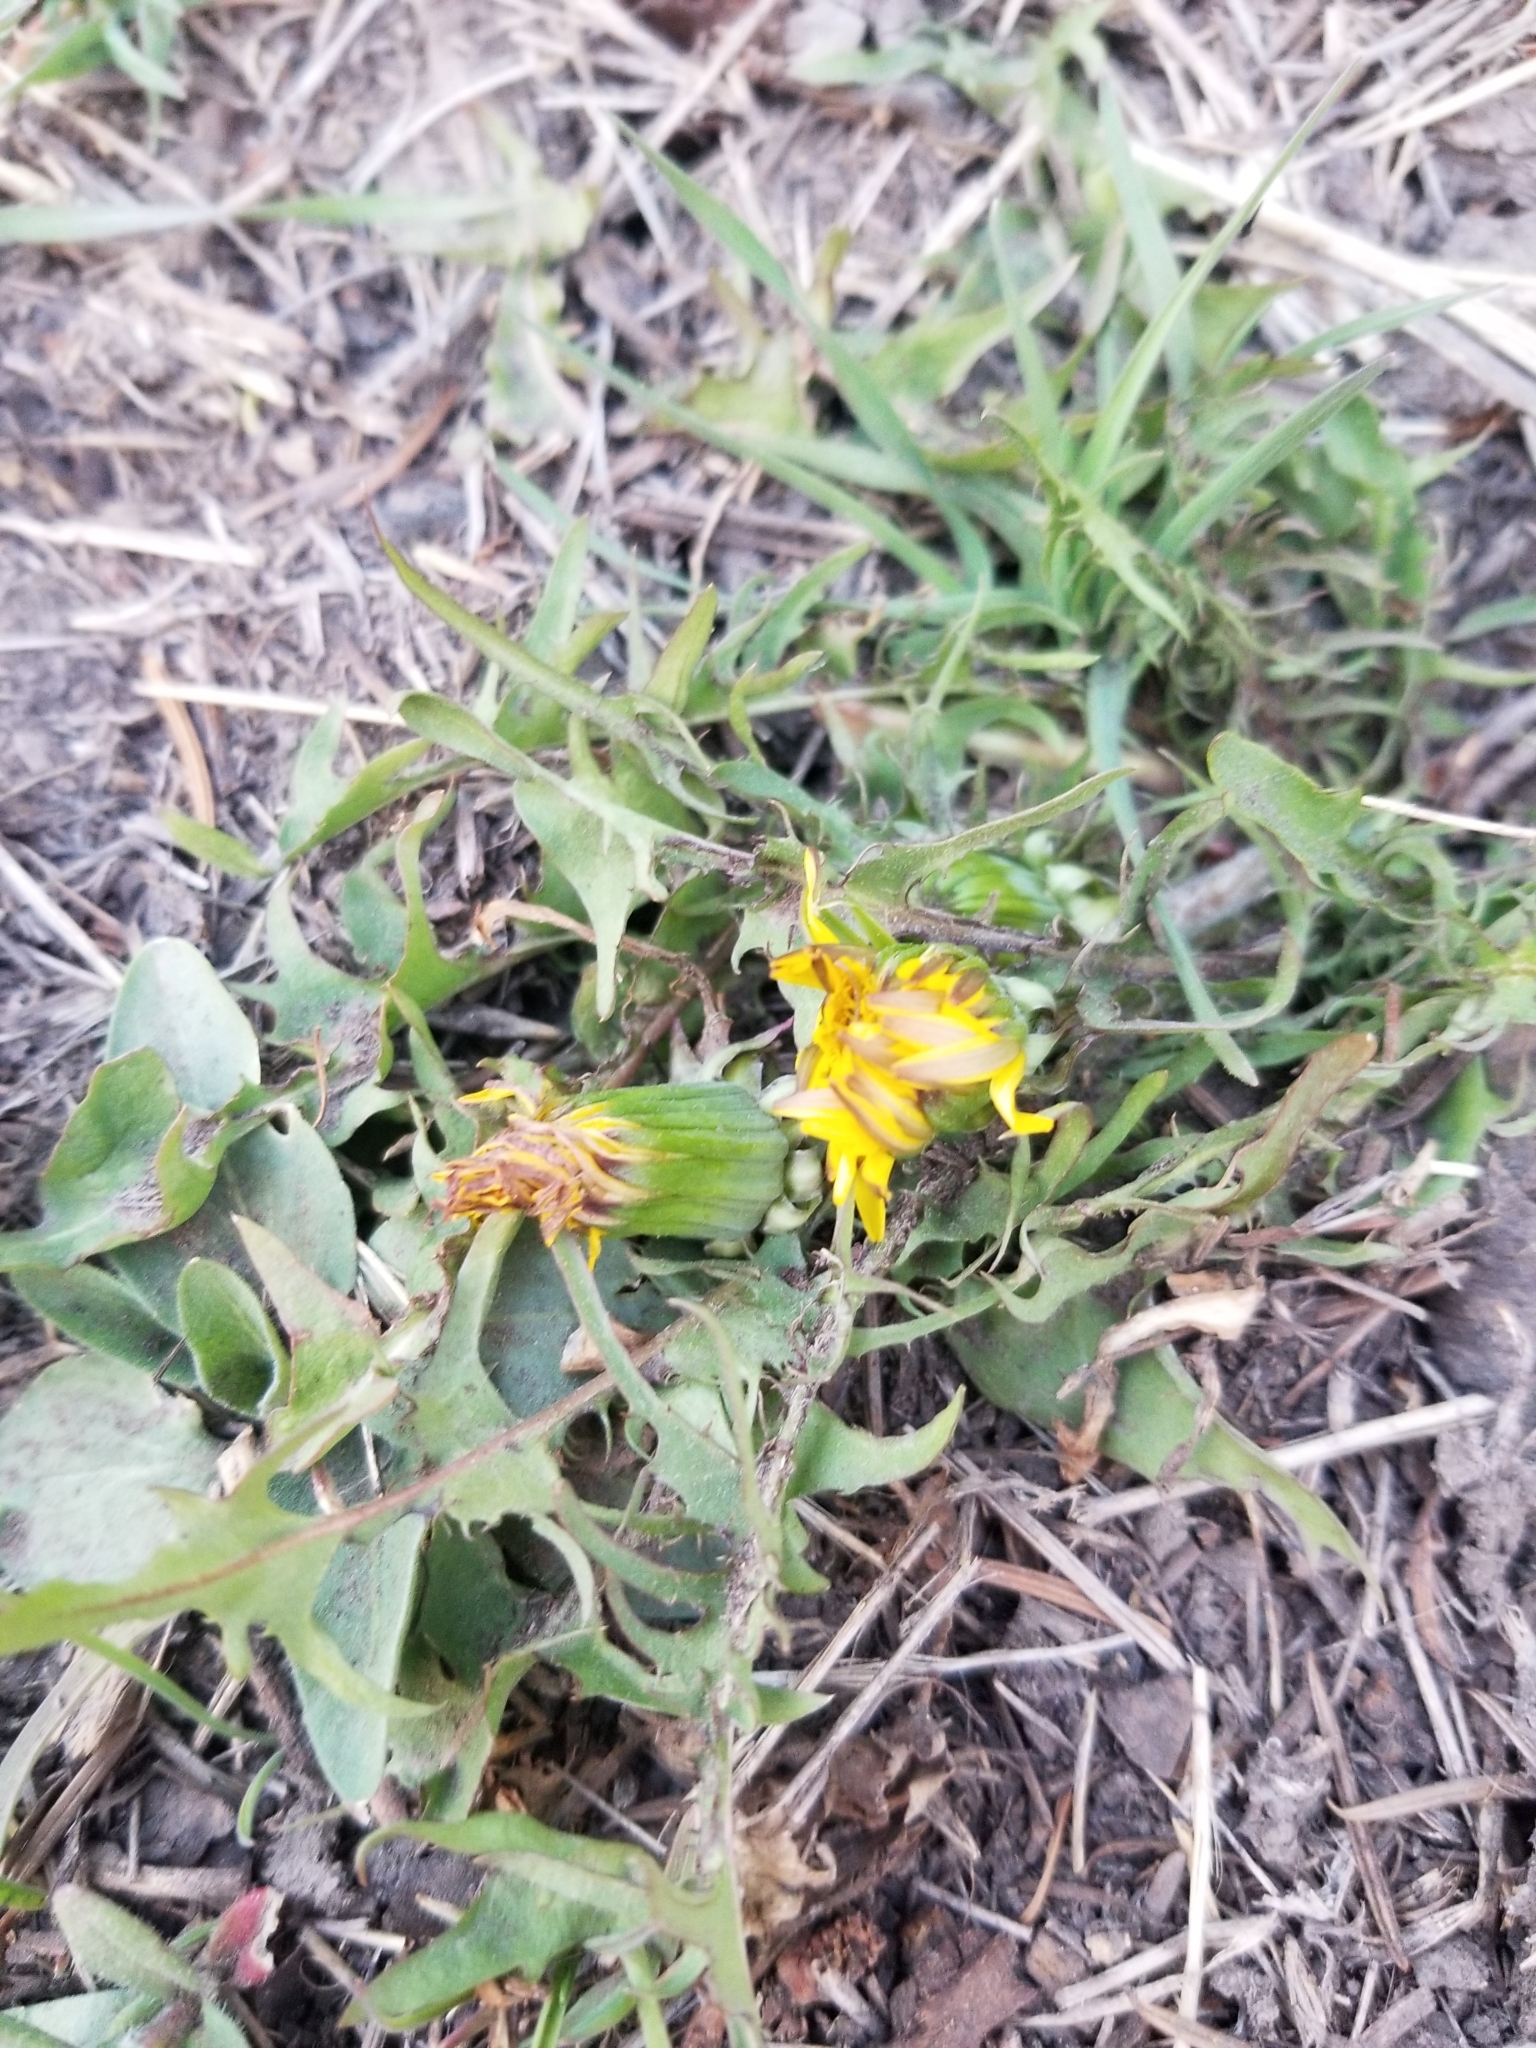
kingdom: Plantae
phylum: Tracheophyta
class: Magnoliopsida
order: Asterales
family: Asteraceae
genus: Taraxacum
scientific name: Taraxacum officinale
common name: Common dandelion
